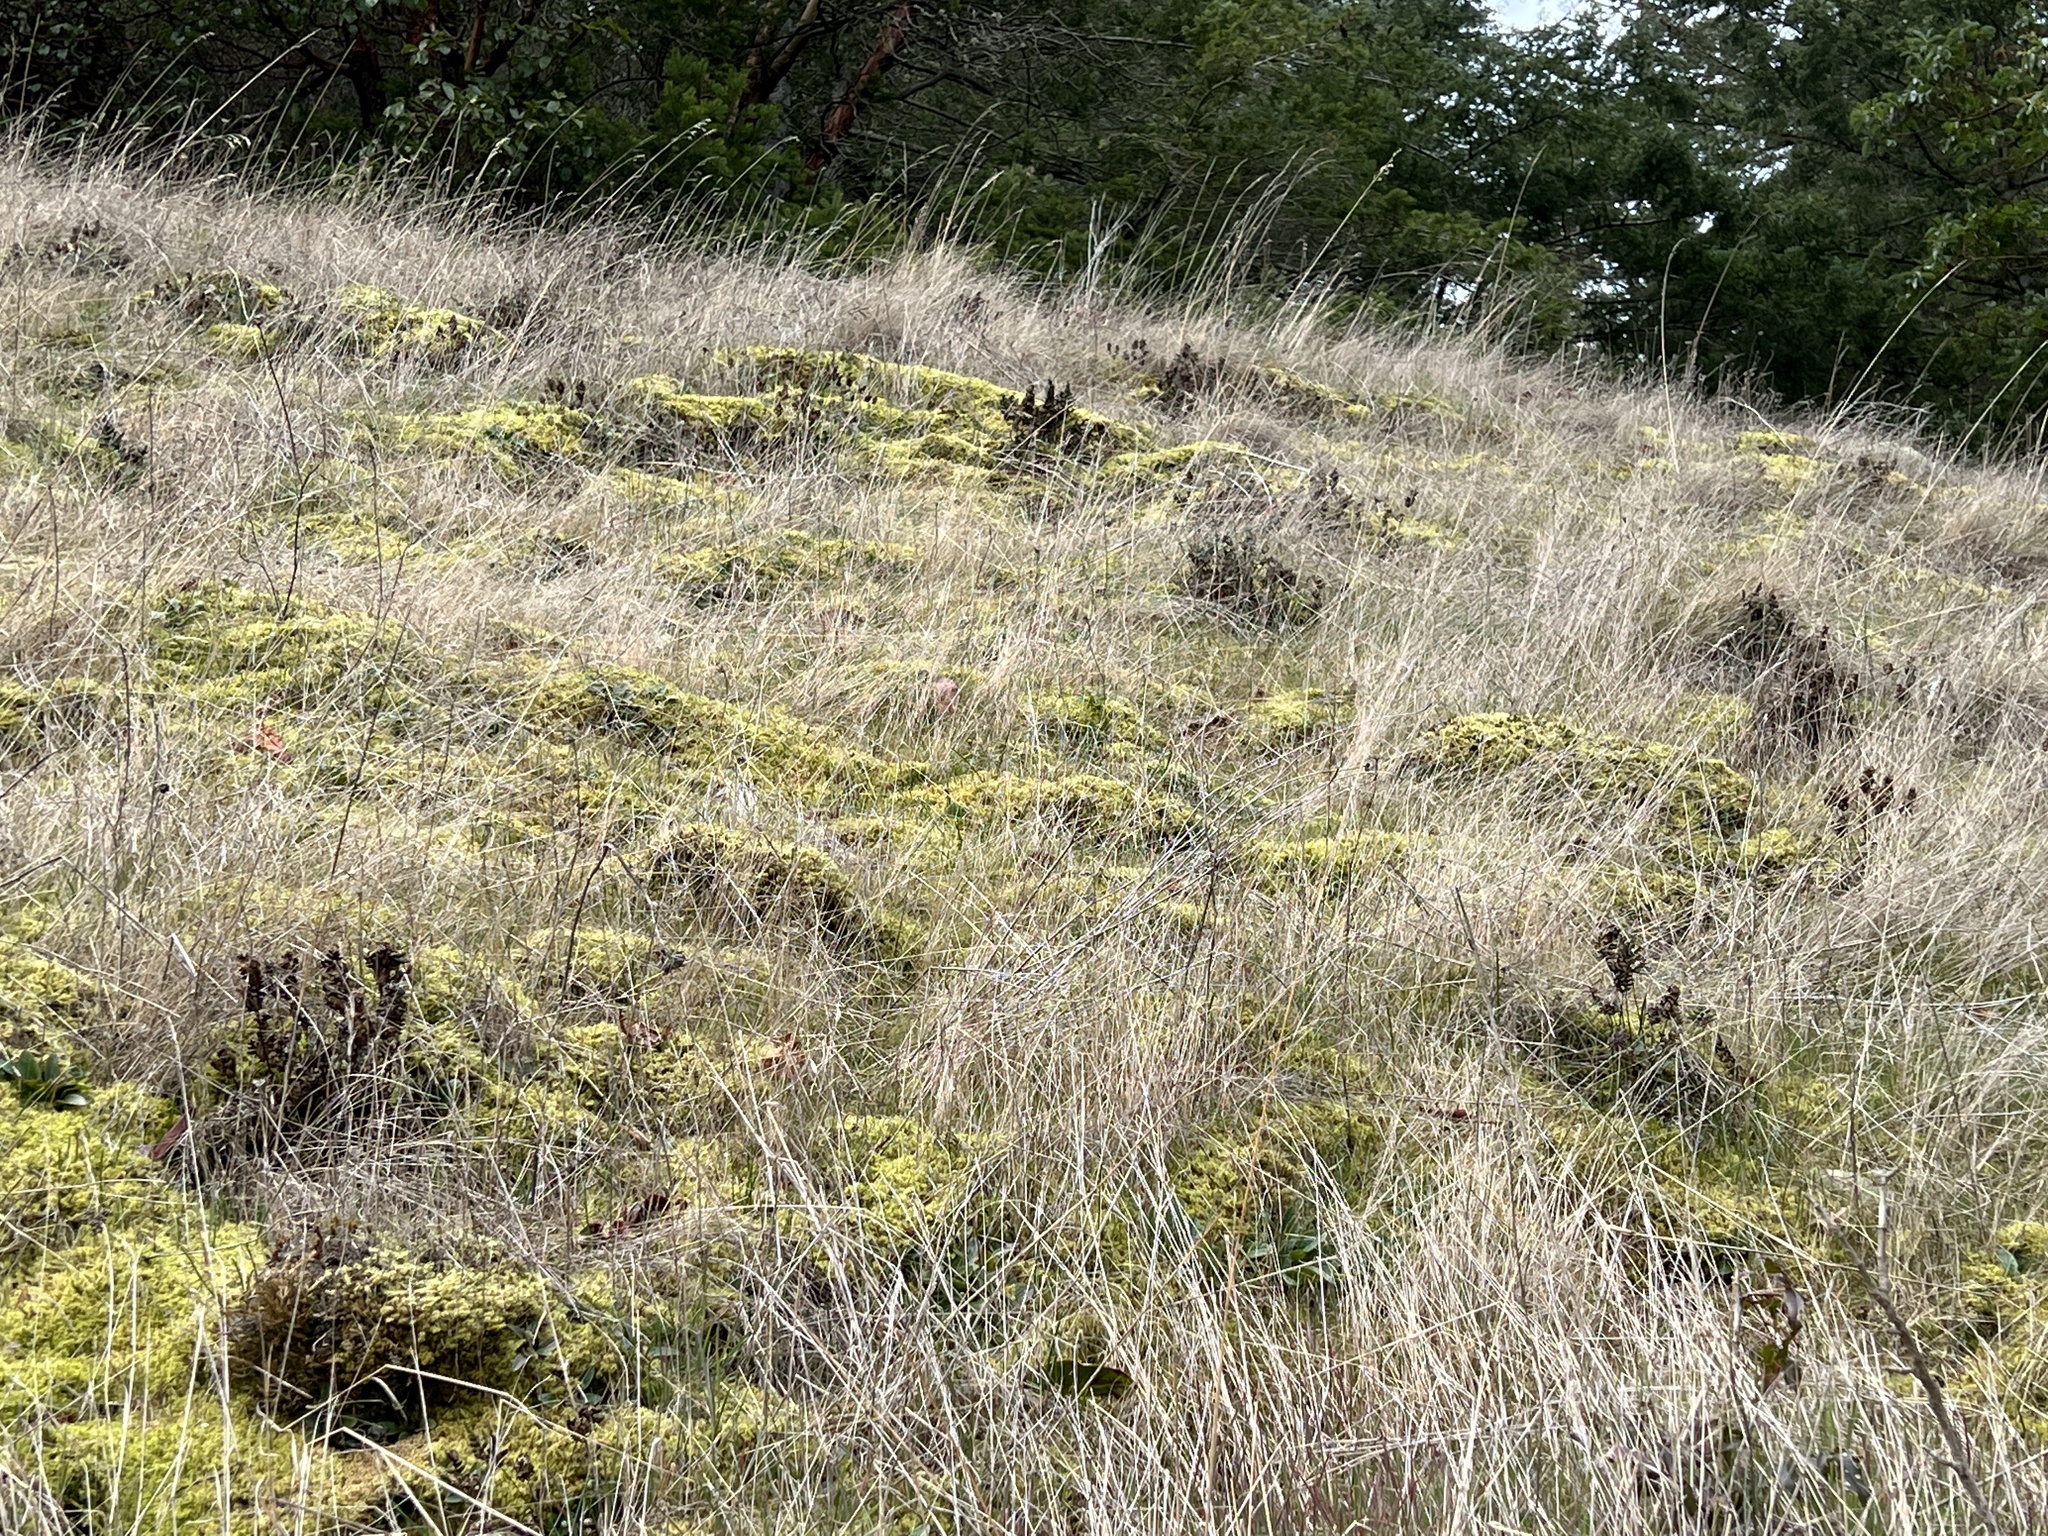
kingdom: Plantae
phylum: Tracheophyta
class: Polypodiopsida
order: Polypodiales
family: Pteridaceae
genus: Pentagramma
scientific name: Pentagramma triangularis
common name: Gold fern
